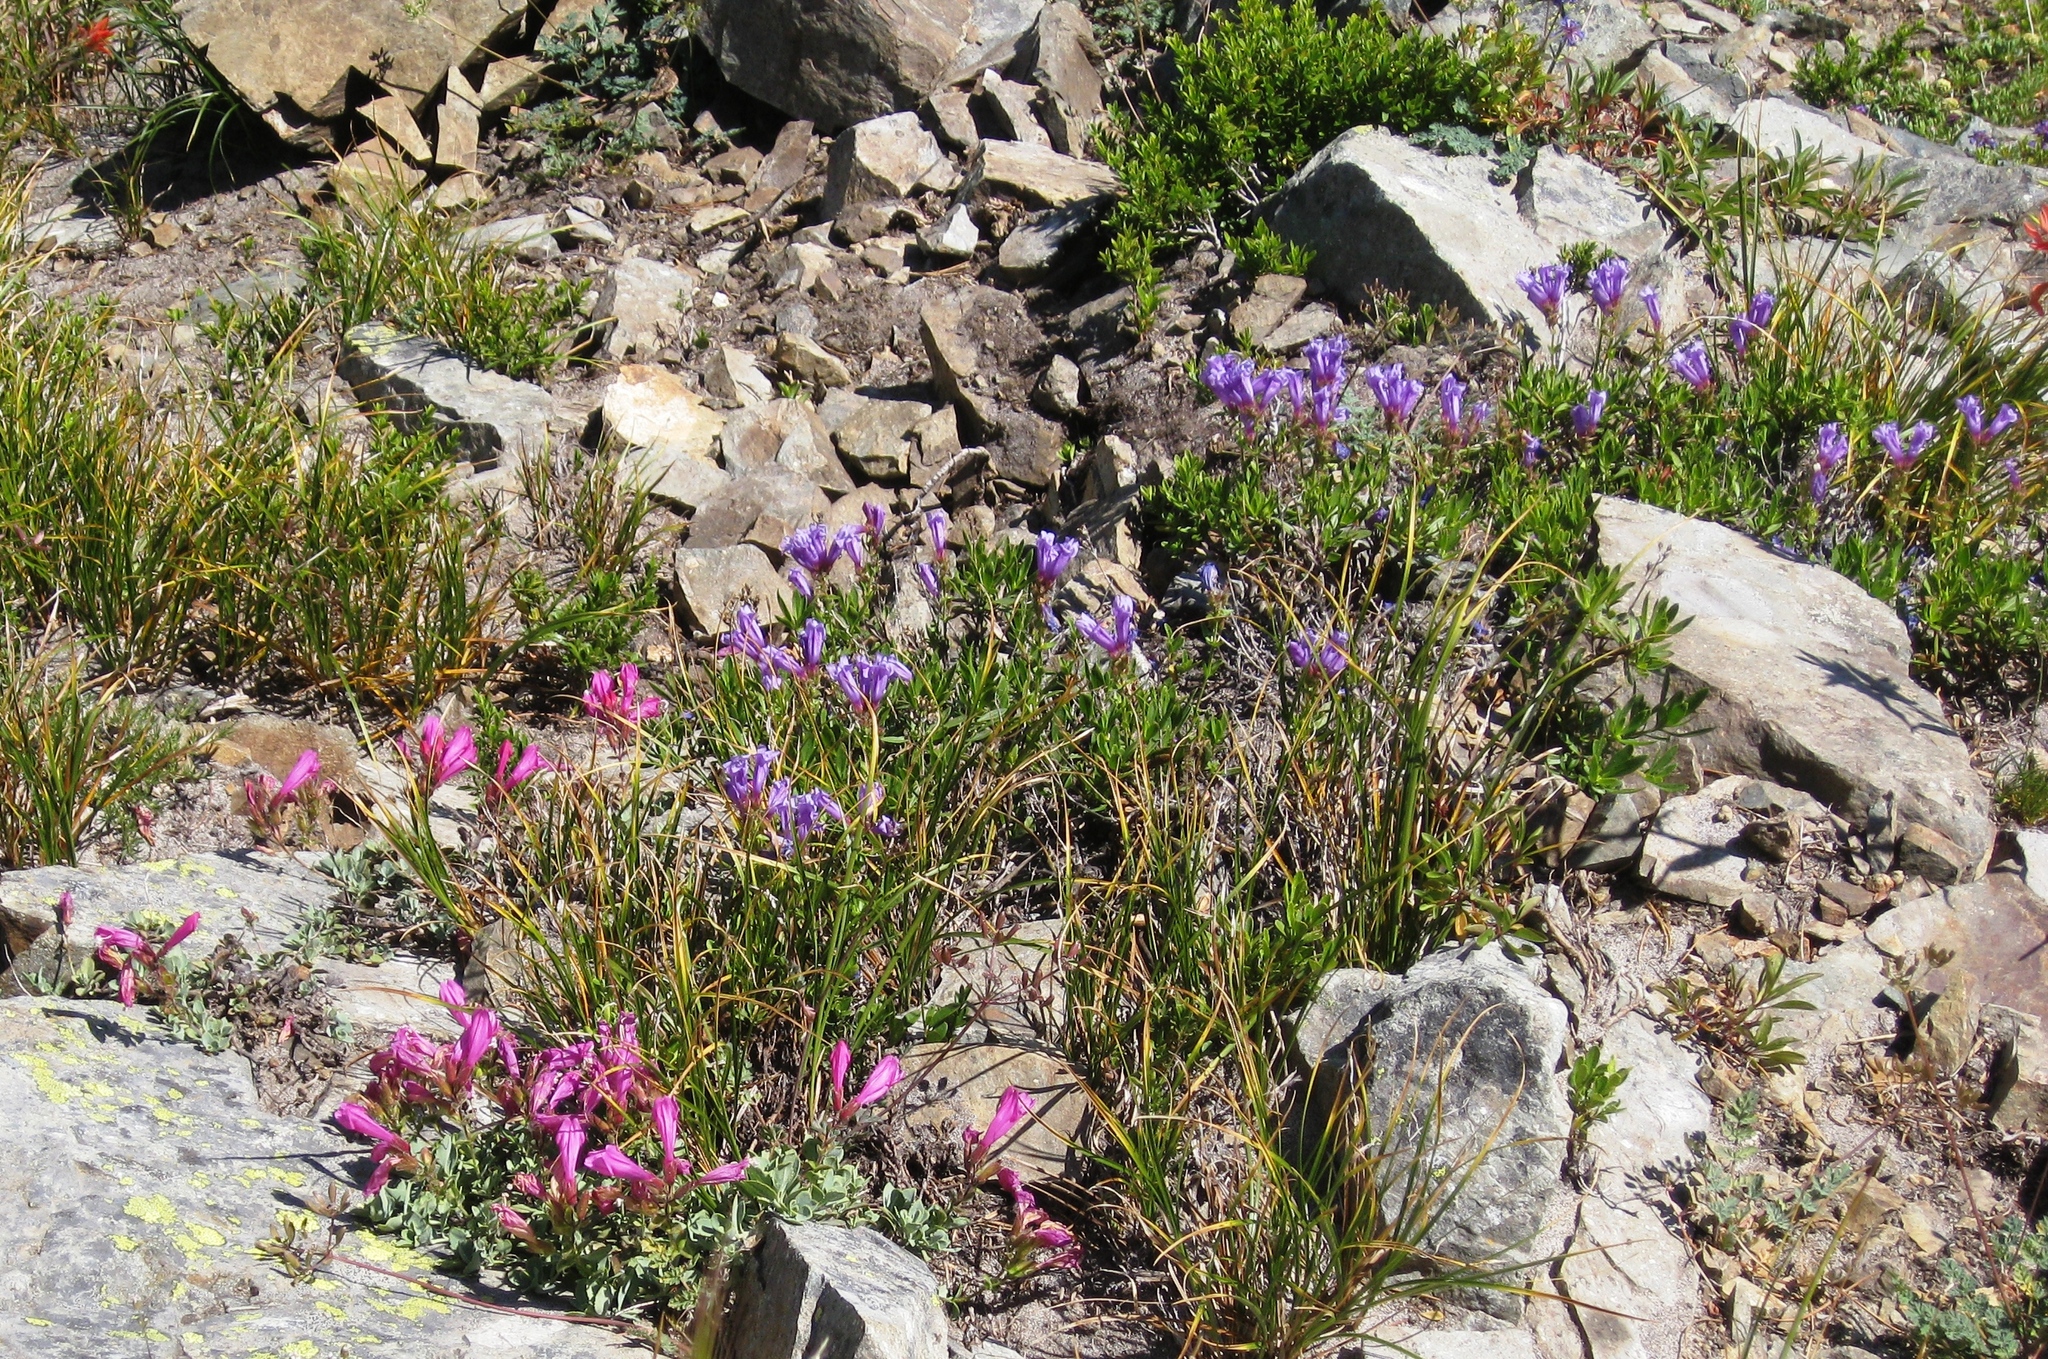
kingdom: Plantae
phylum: Tracheophyta
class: Magnoliopsida
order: Lamiales
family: Plantaginaceae
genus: Penstemon
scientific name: Penstemon rupicola
